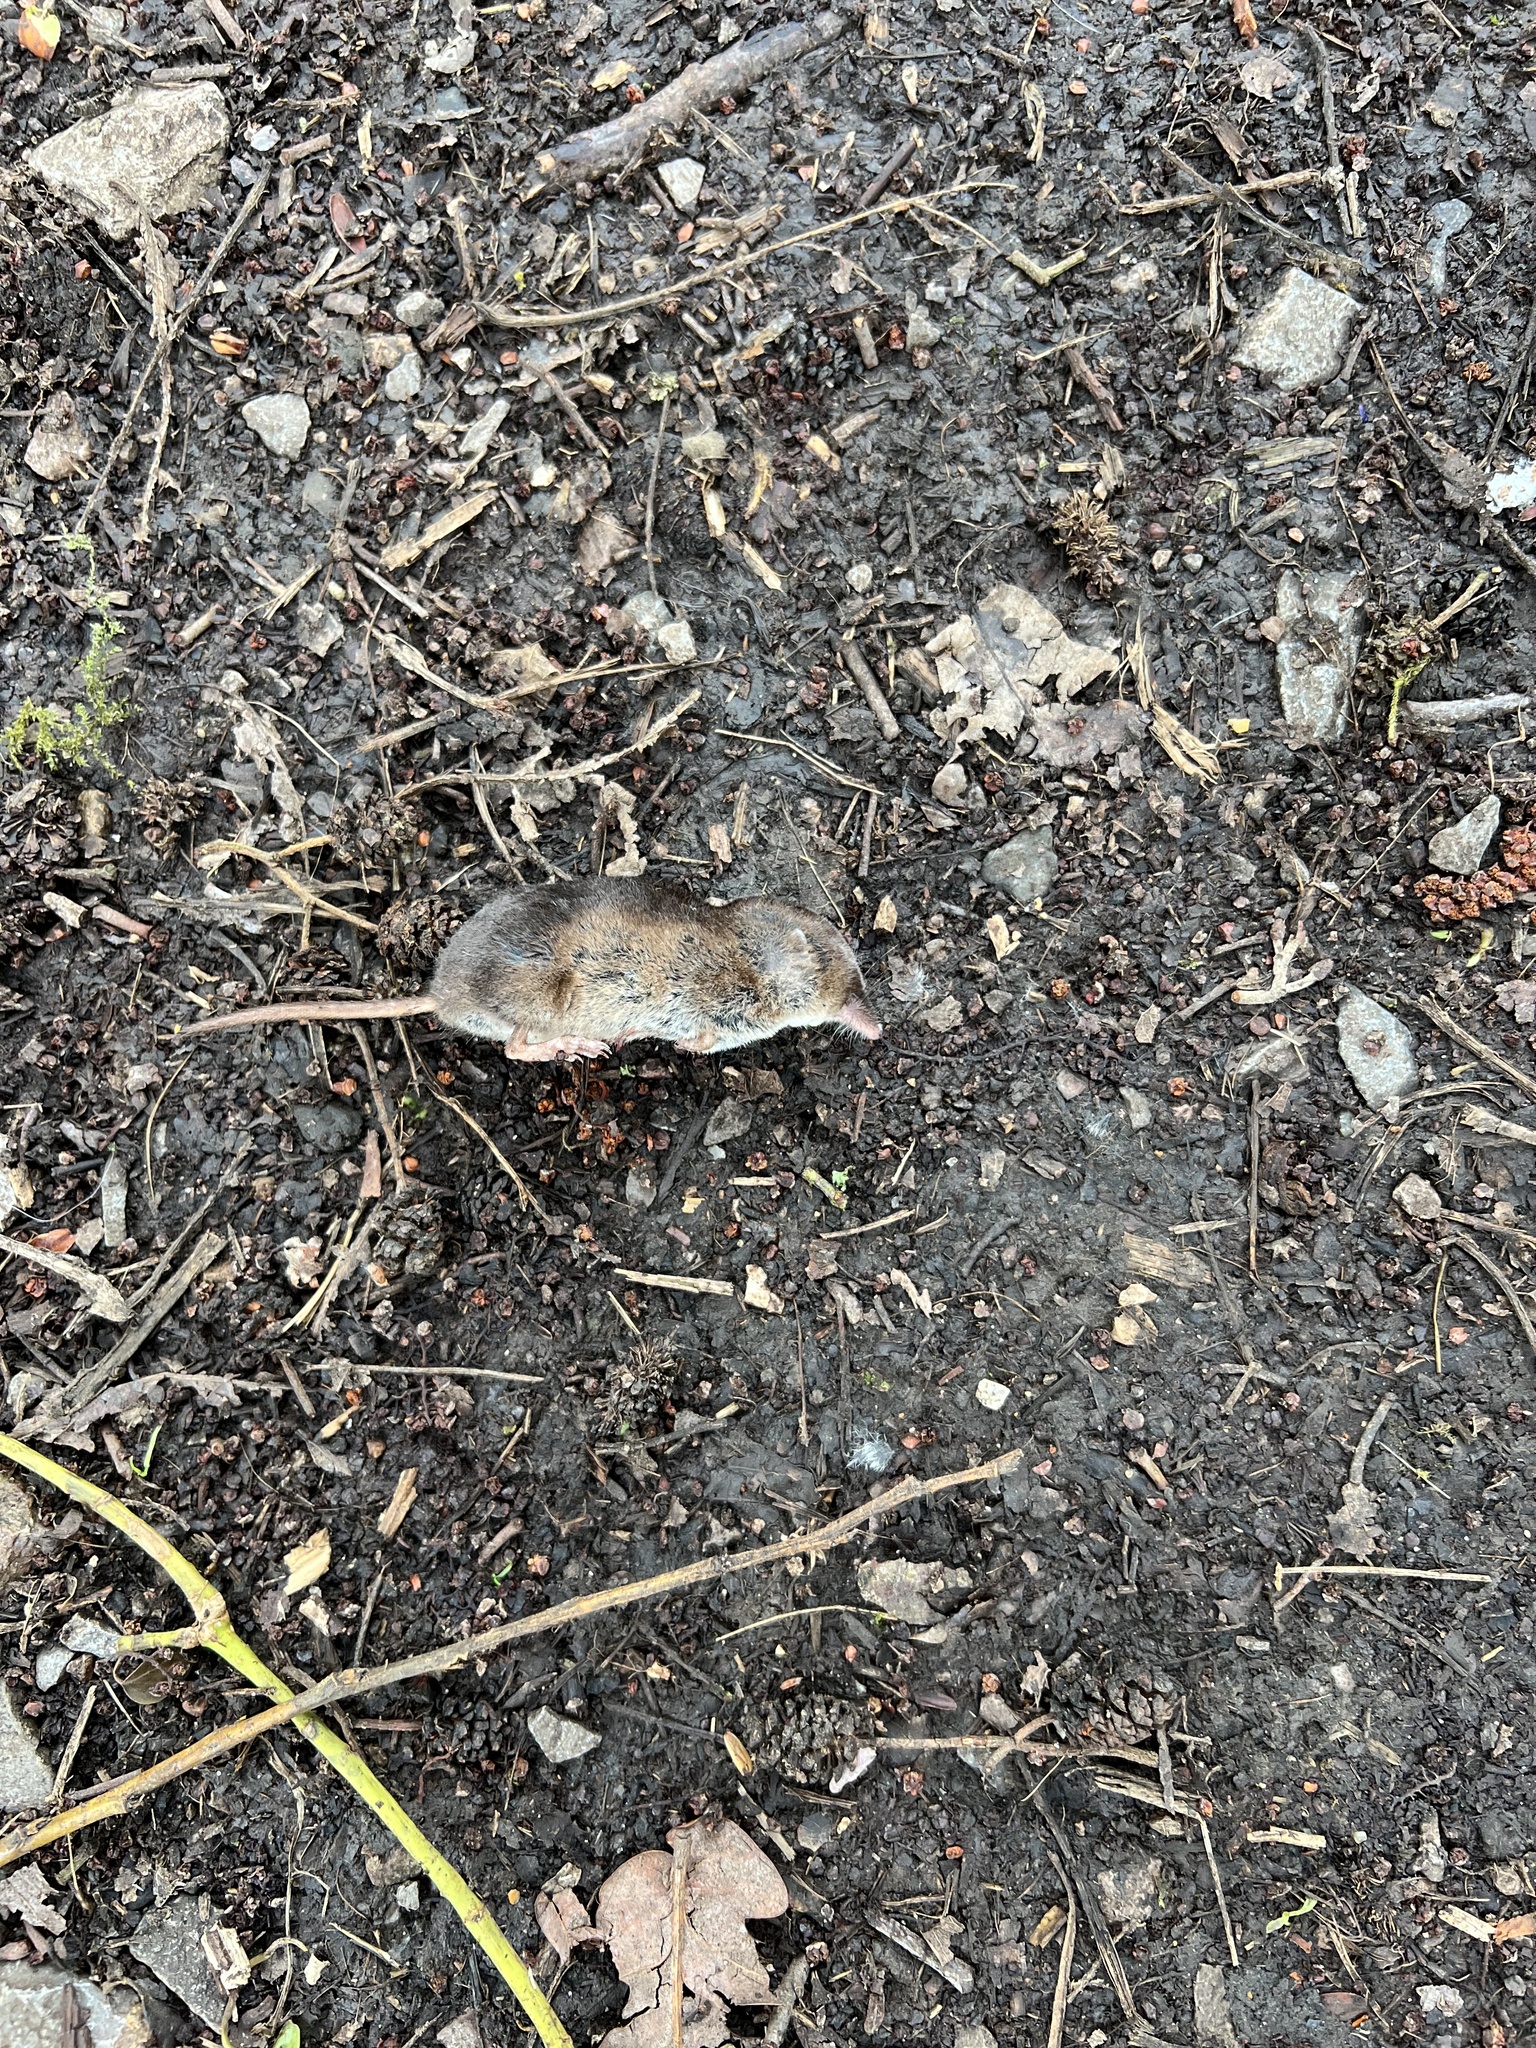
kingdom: Animalia
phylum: Chordata
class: Mammalia
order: Soricomorpha
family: Soricidae
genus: Sorex
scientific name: Sorex araneus
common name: Common shrew
